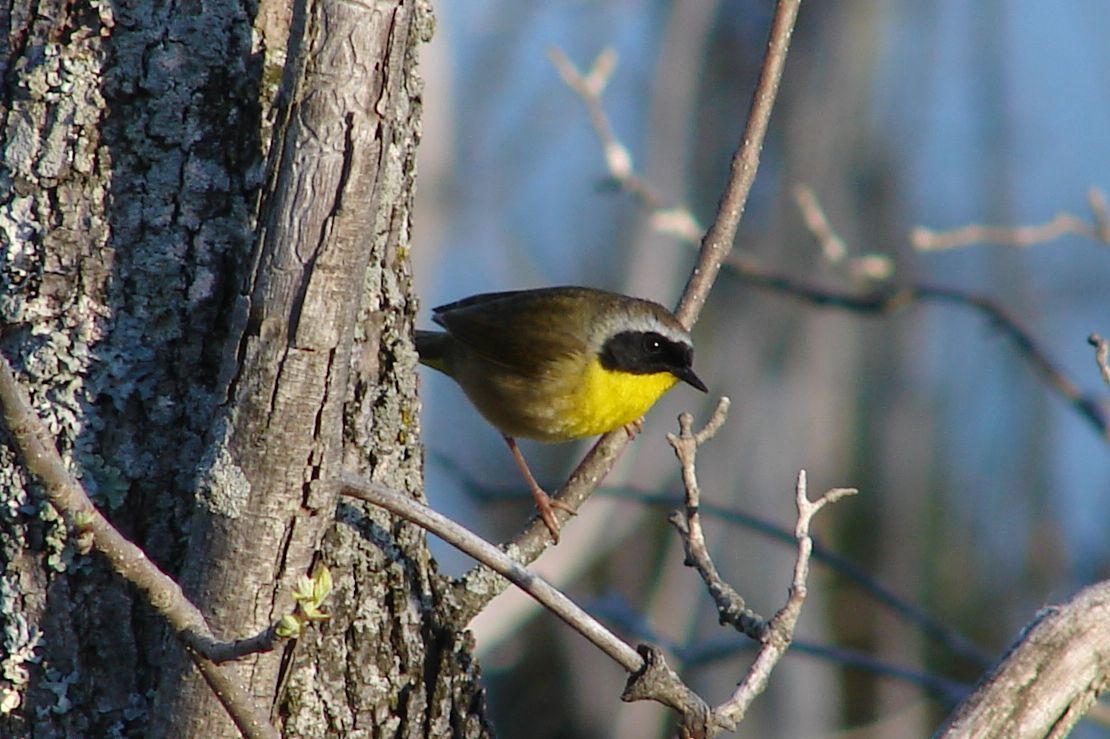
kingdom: Animalia
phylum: Chordata
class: Aves
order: Passeriformes
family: Parulidae
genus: Geothlypis
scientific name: Geothlypis trichas
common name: Common yellowthroat
